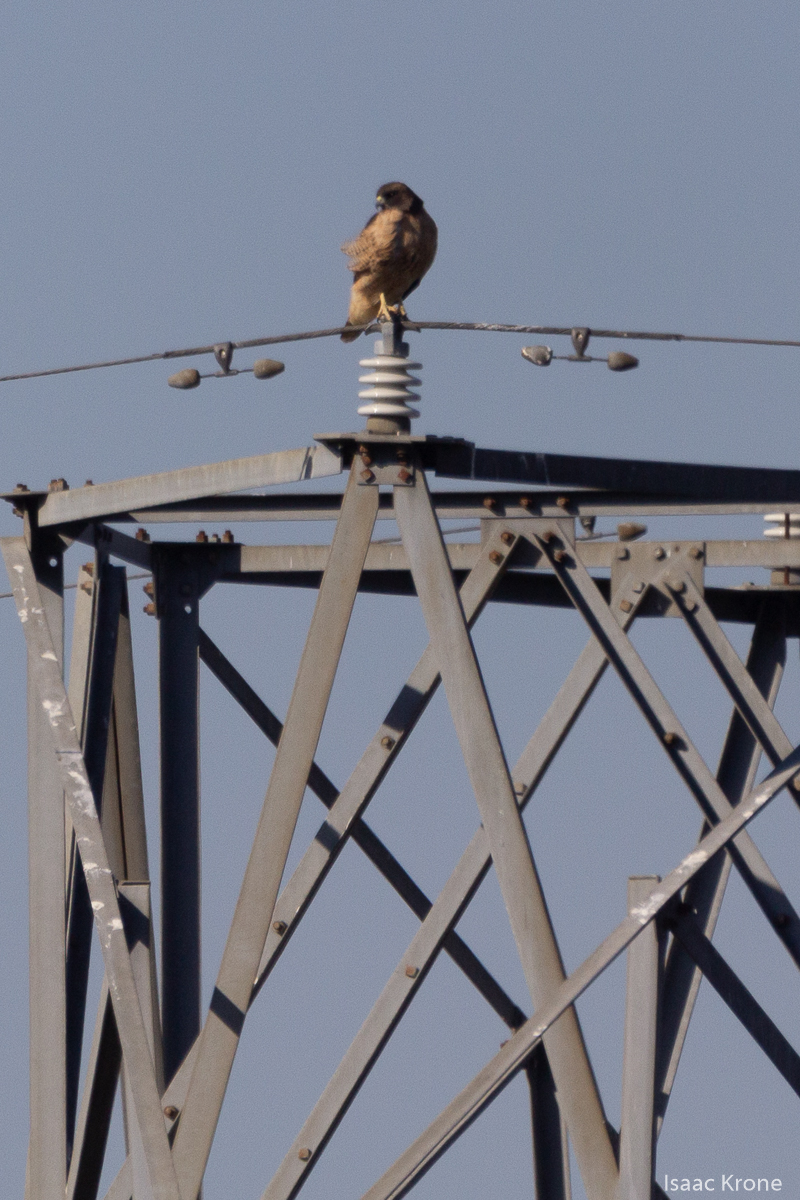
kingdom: Animalia
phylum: Chordata
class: Aves
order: Accipitriformes
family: Accipitridae
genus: Buteo
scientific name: Buteo jamaicensis
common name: Red-tailed hawk
